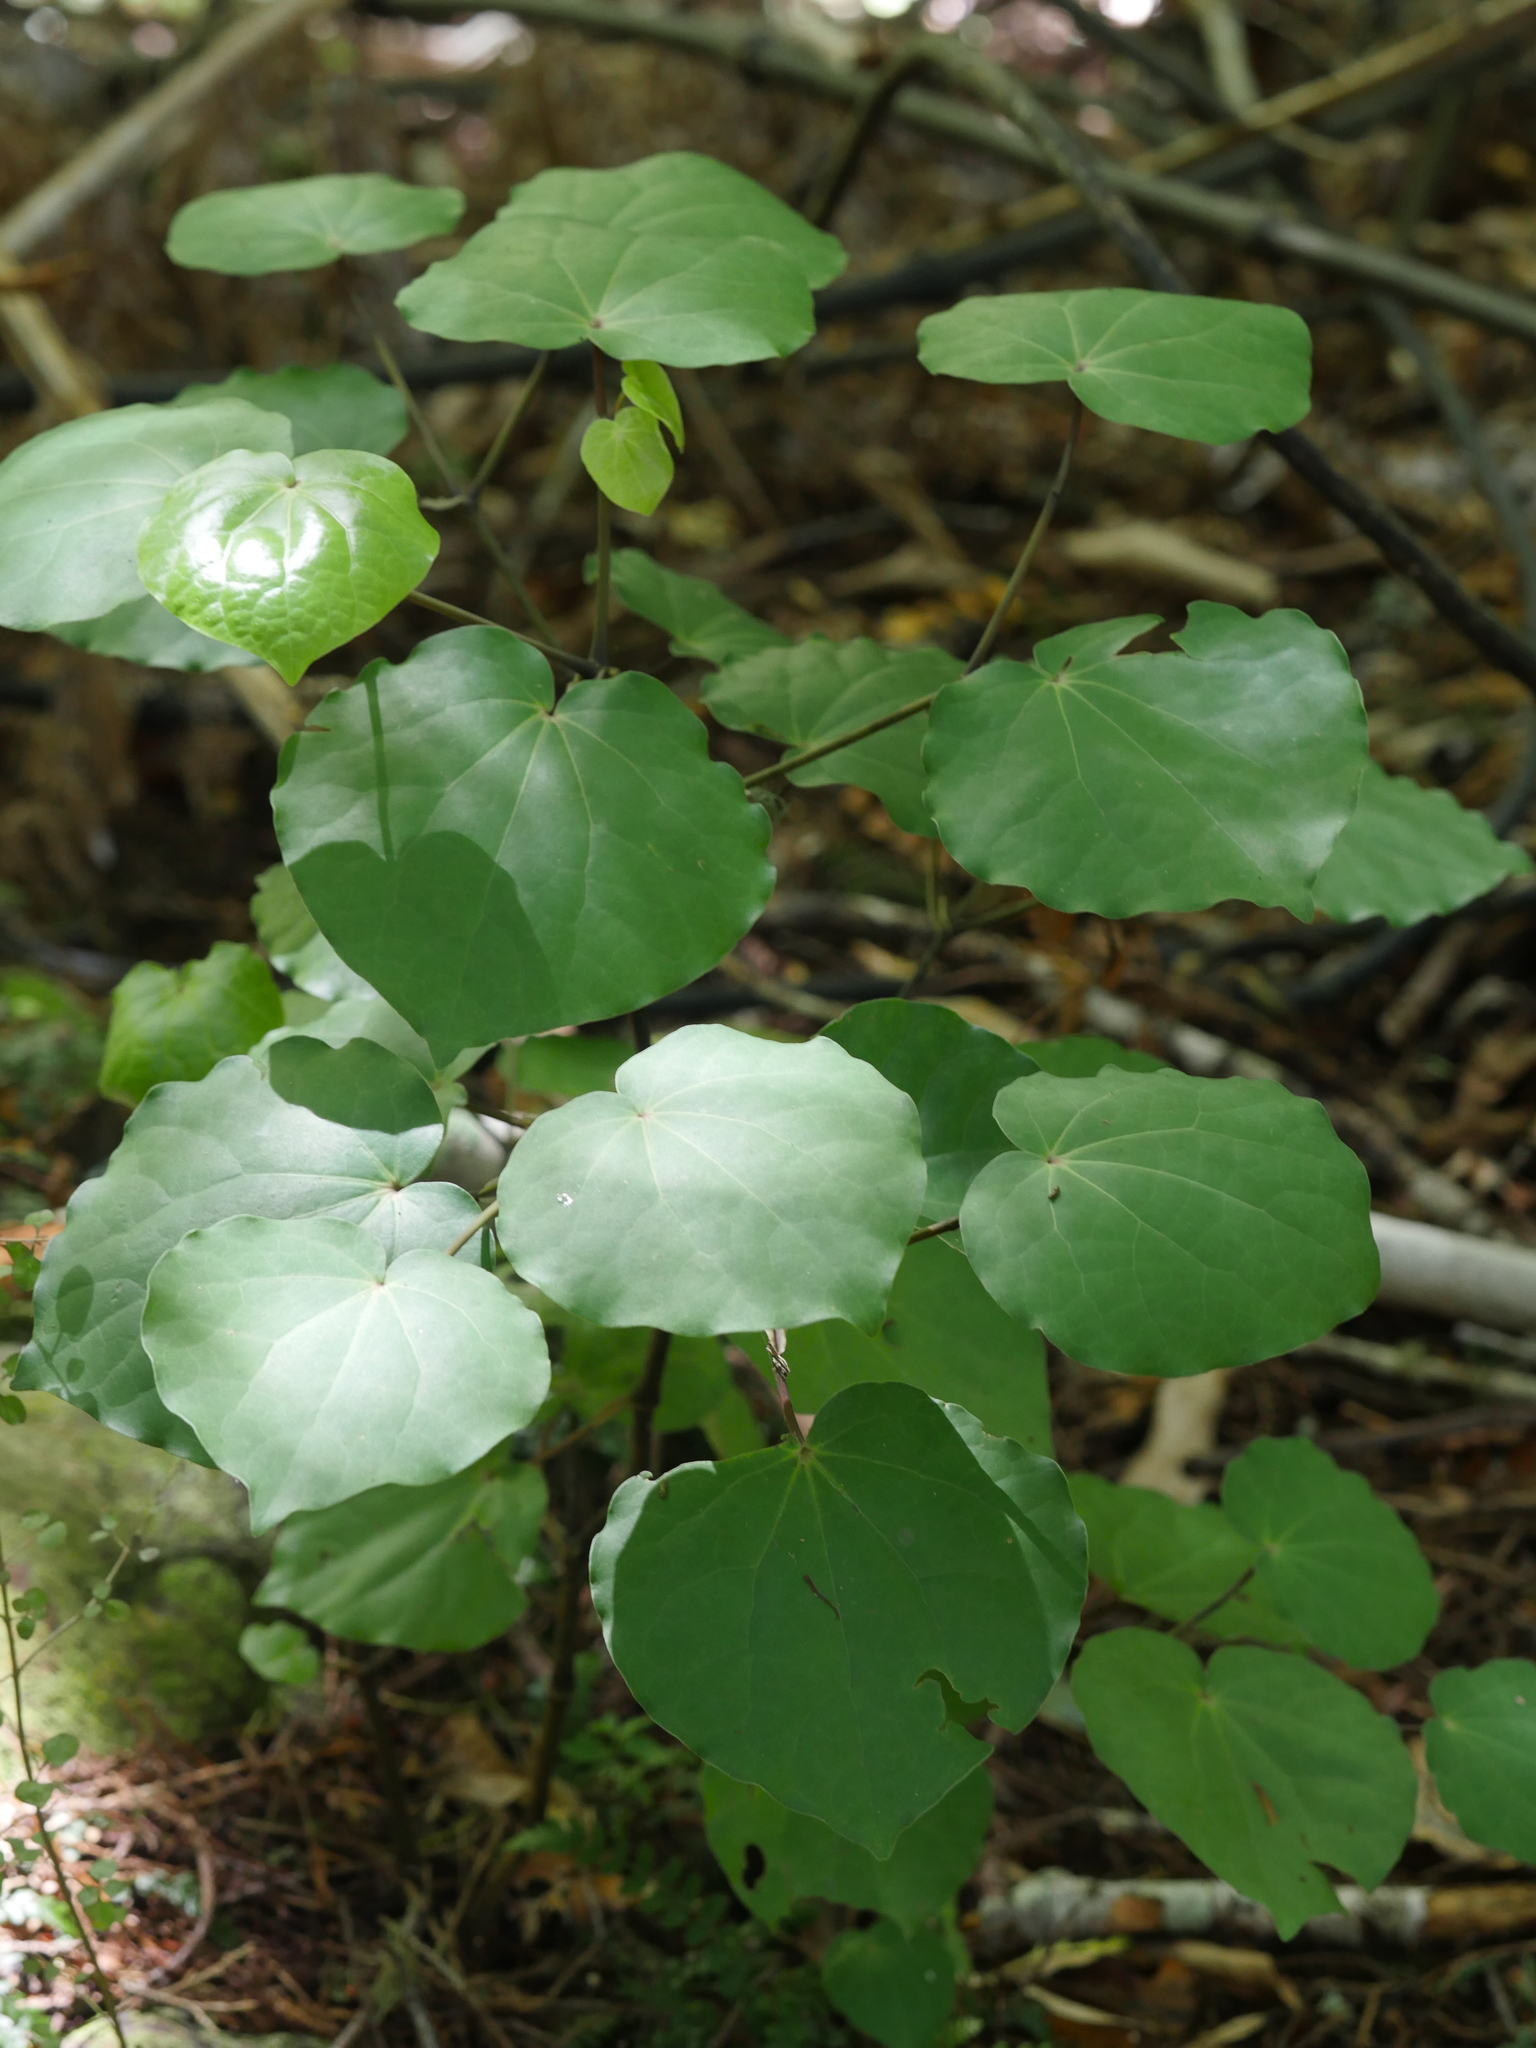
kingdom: Plantae
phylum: Tracheophyta
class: Magnoliopsida
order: Piperales
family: Piperaceae
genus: Macropiper
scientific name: Macropiper excelsum
